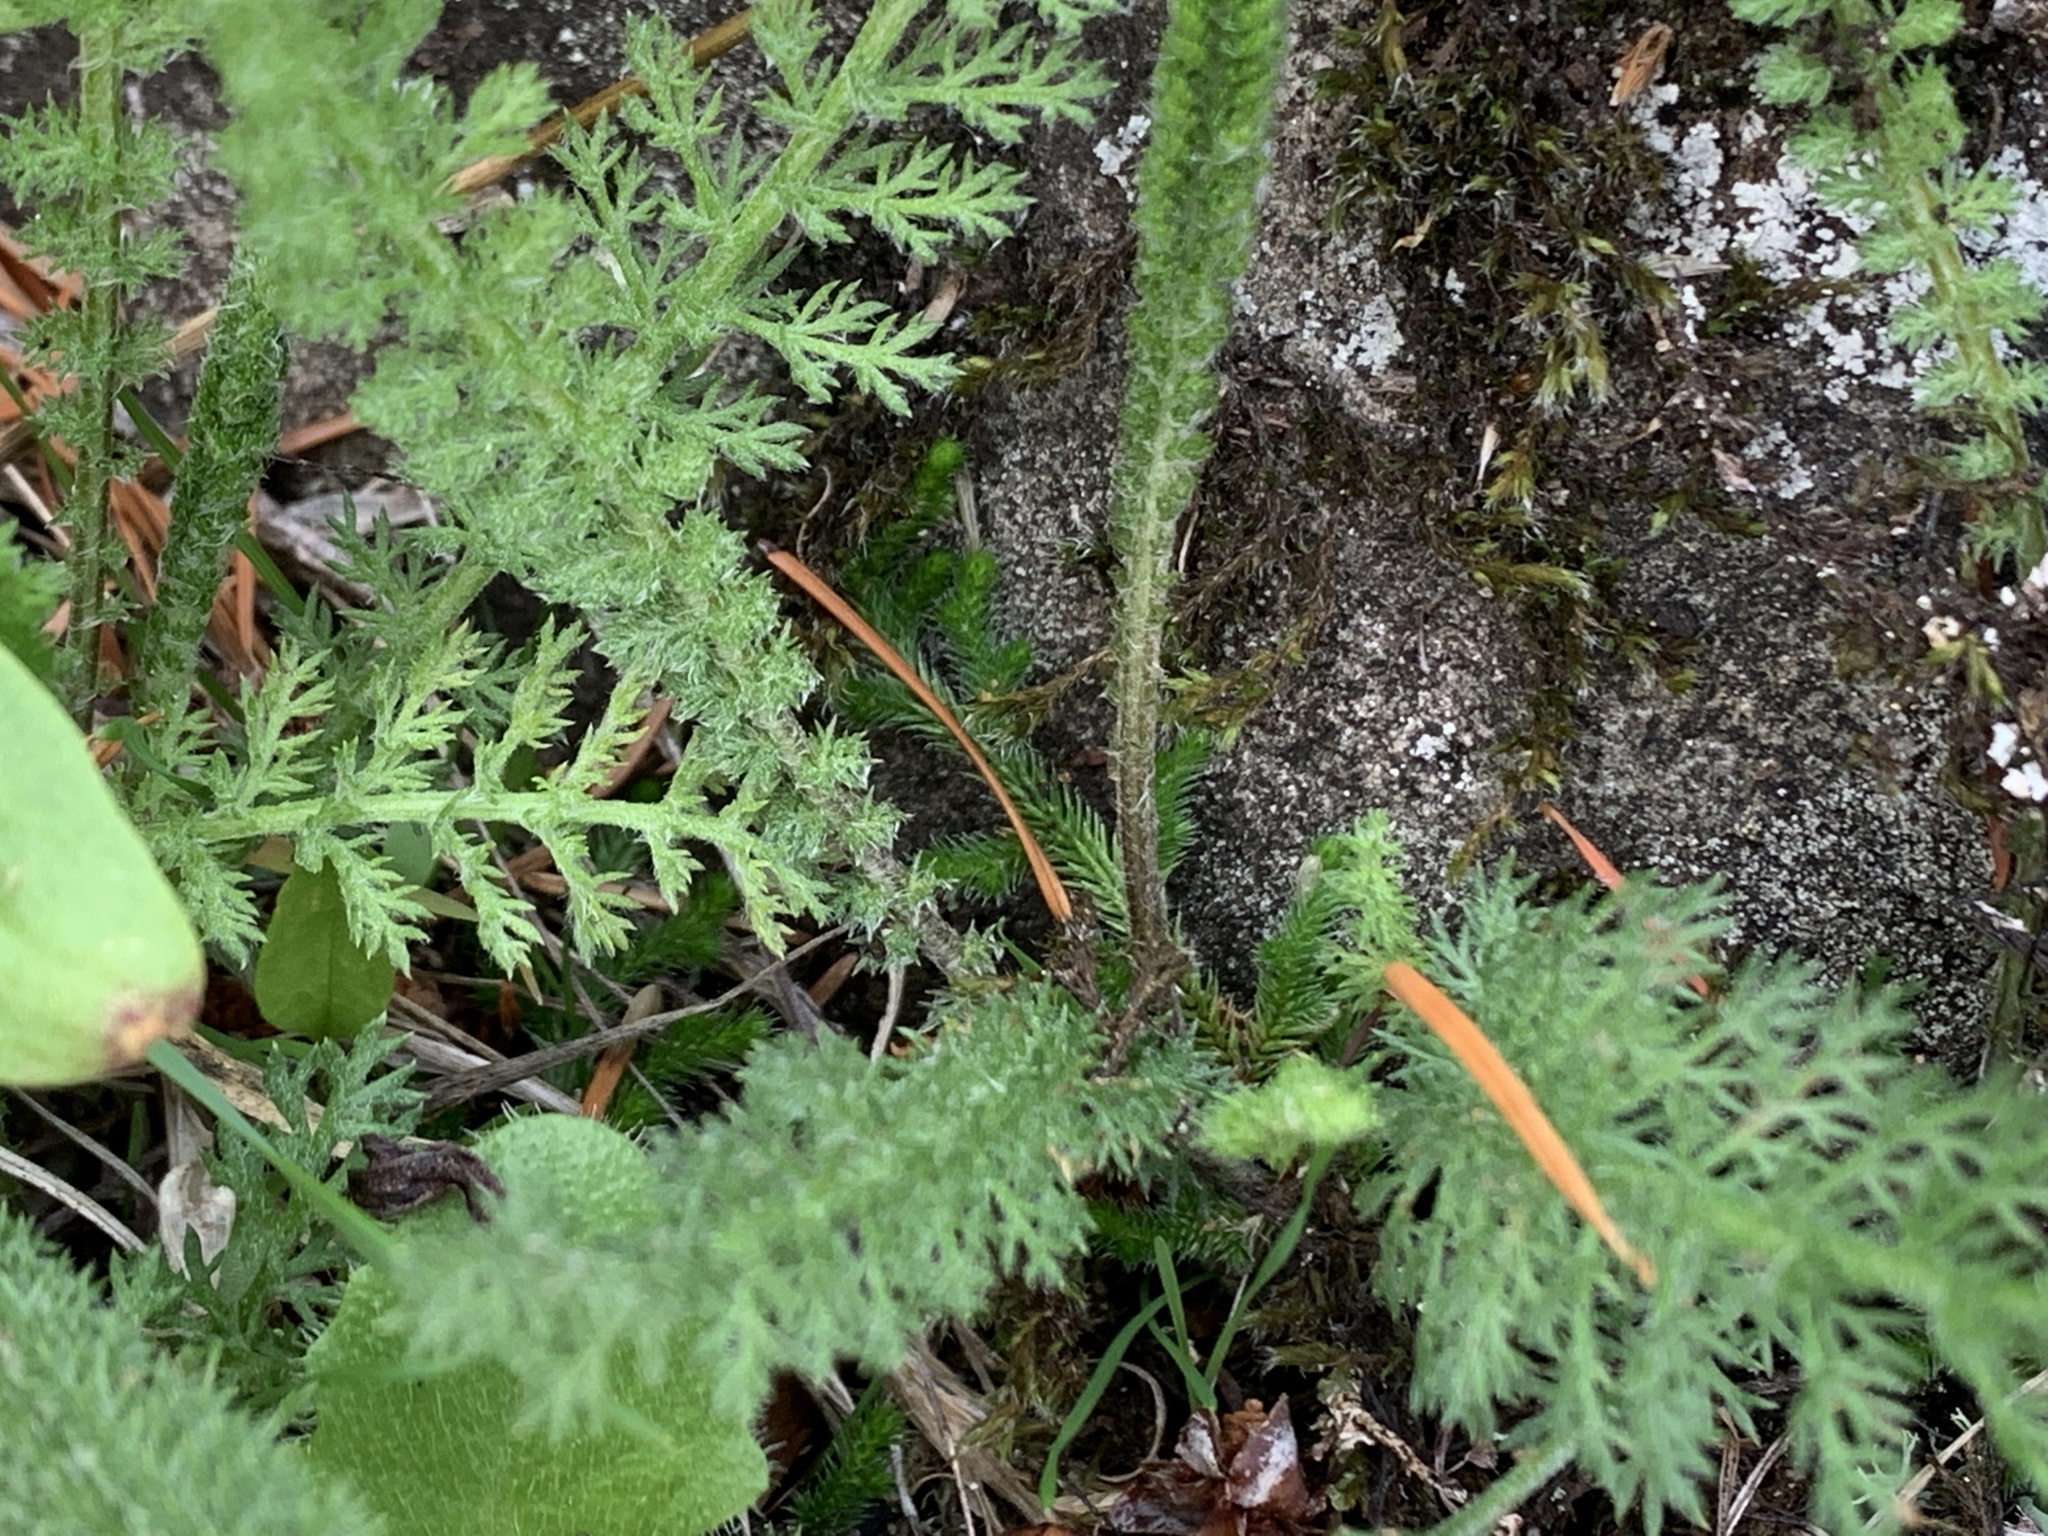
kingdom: Plantae
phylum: Tracheophyta
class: Magnoliopsida
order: Asterales
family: Asteraceae
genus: Achillea
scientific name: Achillea millefolium
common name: Yarrow
